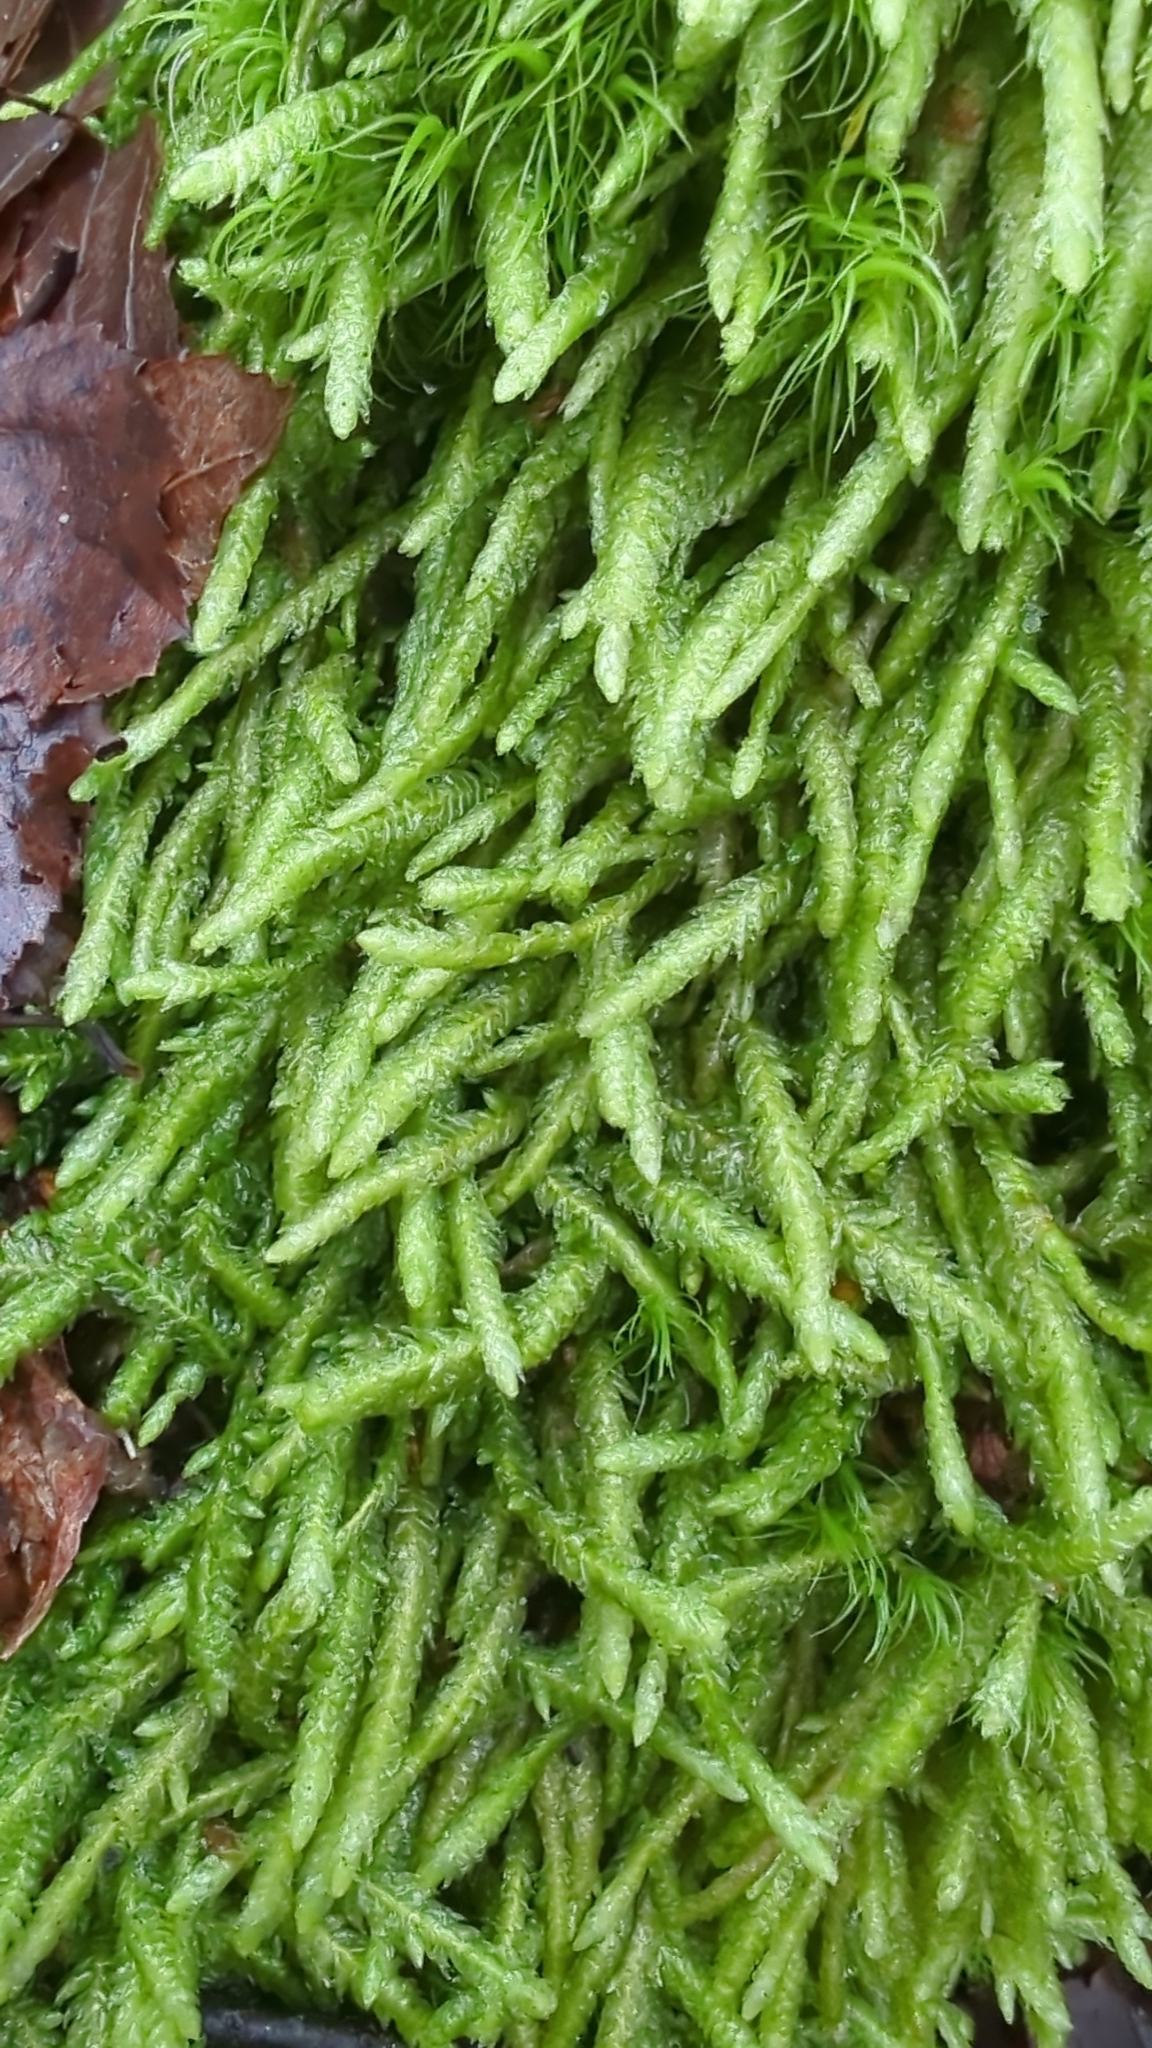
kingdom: Plantae
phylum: Bryophyta
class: Bryopsida
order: Hypnales
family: Plagiotheciaceae
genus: Plagiothecium
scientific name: Plagiothecium undulatum
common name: Waved silk-moss
